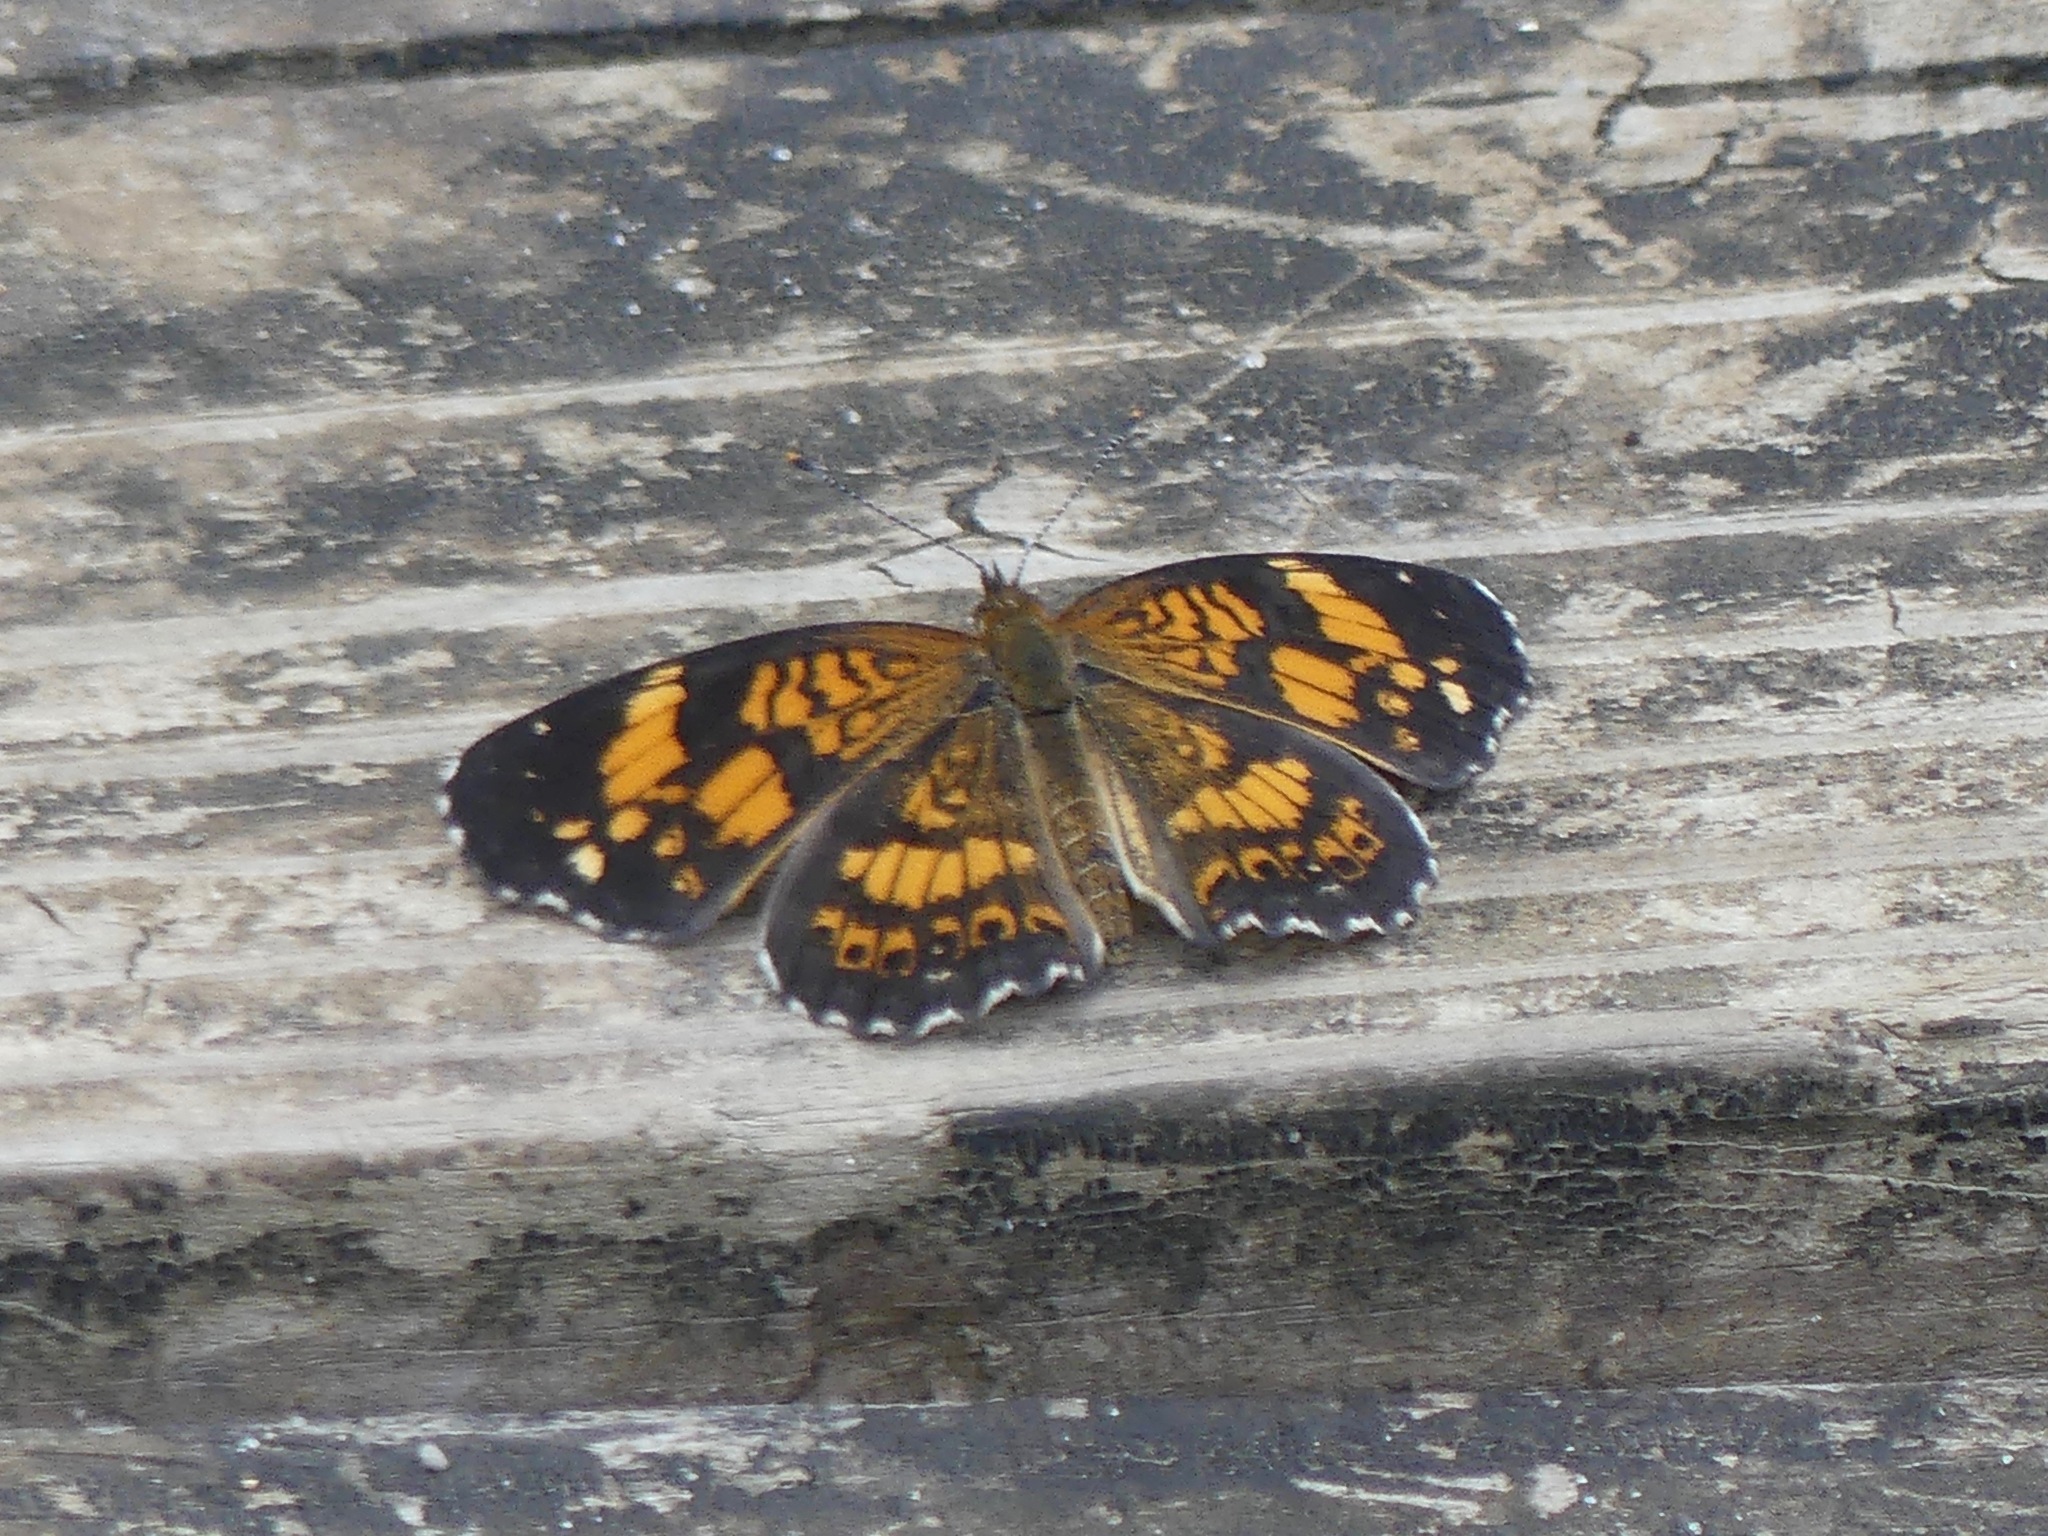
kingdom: Animalia
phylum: Arthropoda
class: Insecta
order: Lepidoptera
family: Nymphalidae
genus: Chlosyne
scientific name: Chlosyne nycteis
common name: Silvery checkerspot
